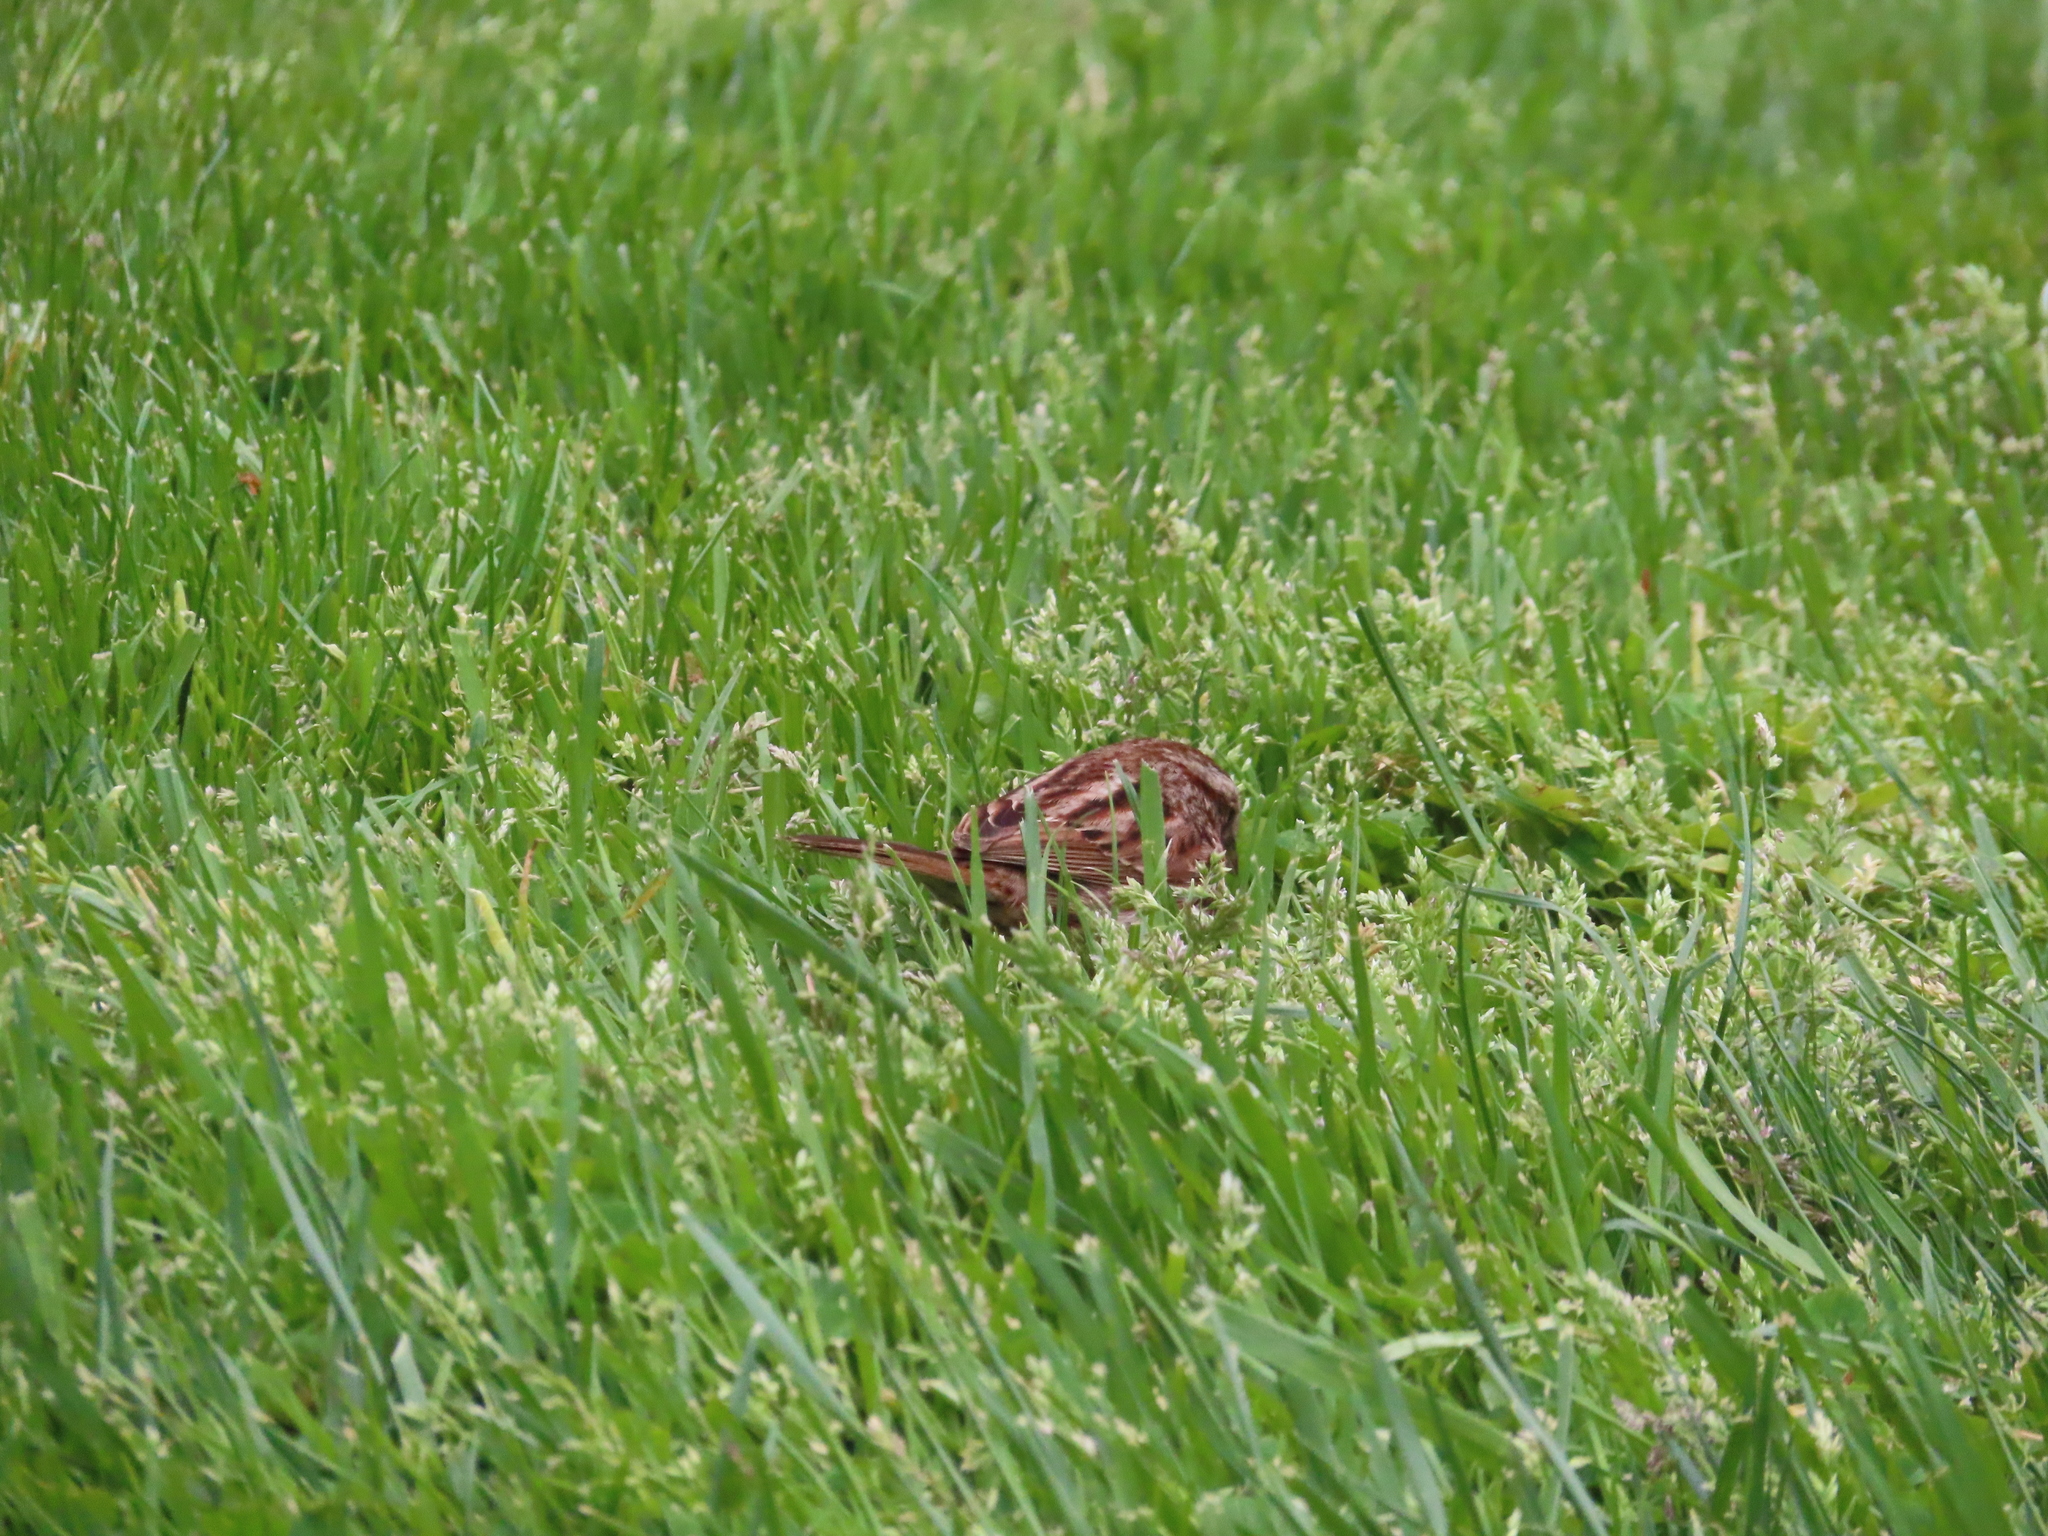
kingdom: Animalia
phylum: Chordata
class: Aves
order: Passeriformes
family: Passerellidae
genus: Melospiza
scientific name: Melospiza melodia
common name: Song sparrow
